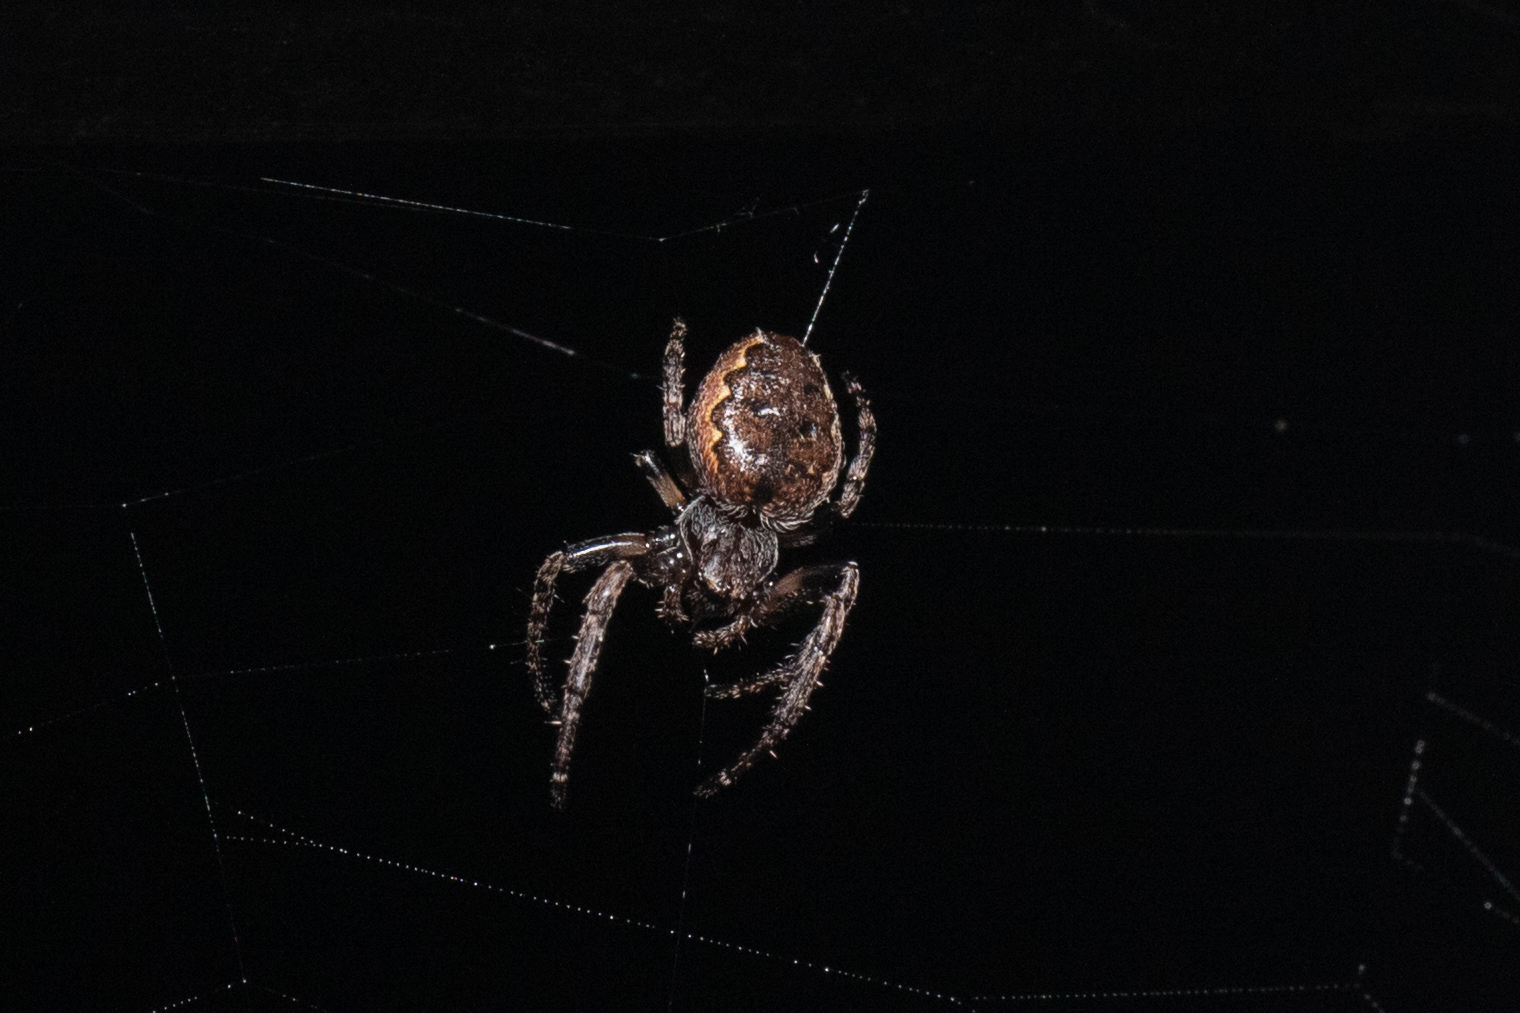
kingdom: Animalia
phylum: Arthropoda
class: Arachnida
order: Araneae
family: Araneidae
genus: Nuctenea
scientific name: Nuctenea umbratica
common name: Toad spider
